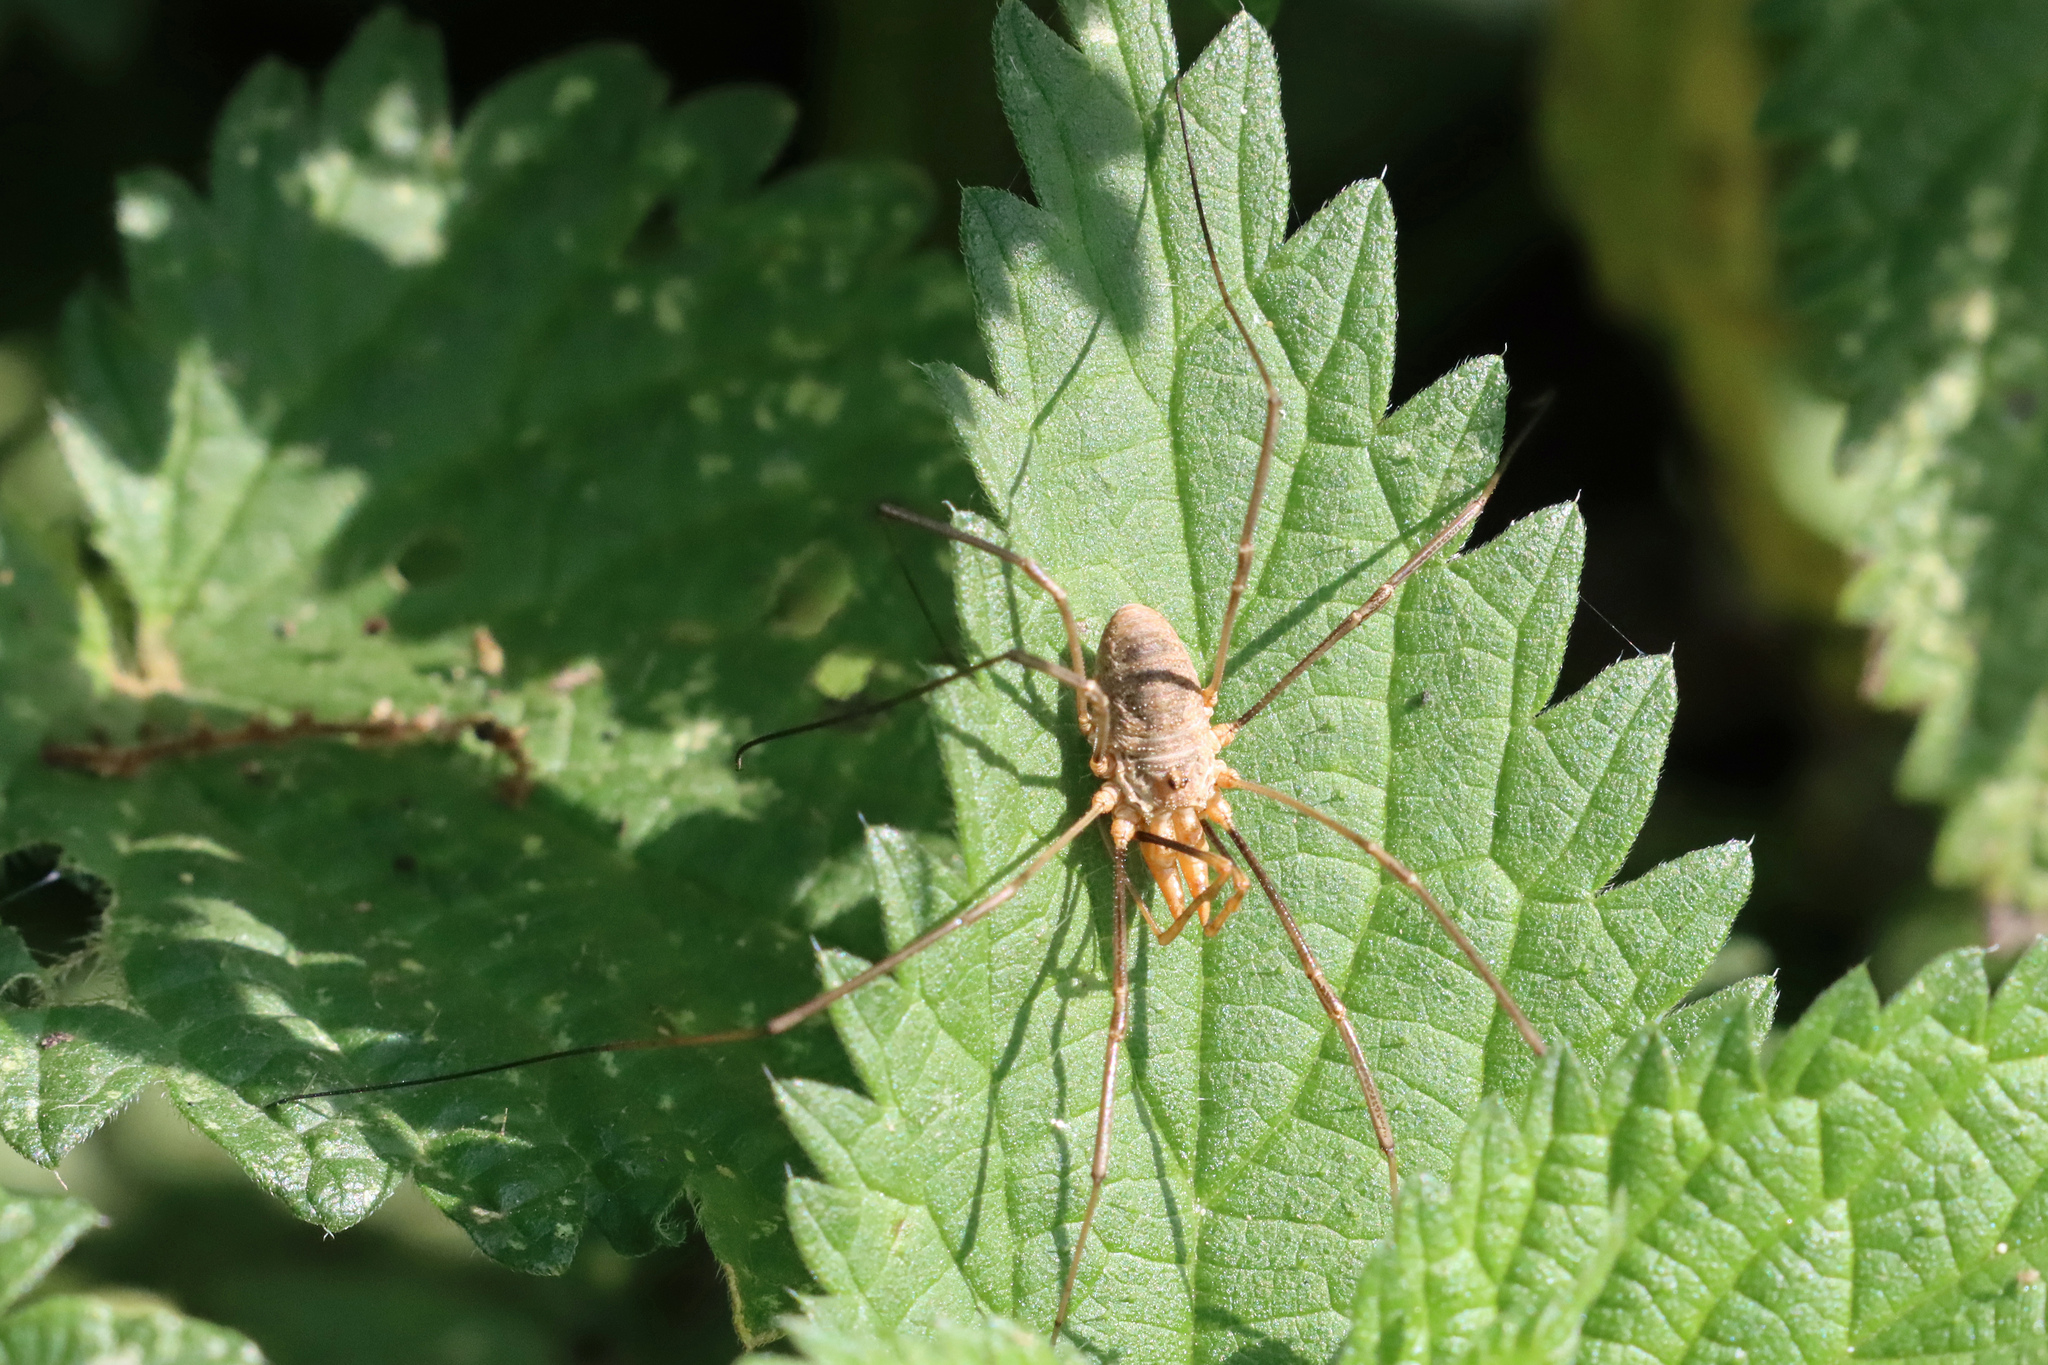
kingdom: Animalia
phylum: Arthropoda
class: Arachnida
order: Opiliones
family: Phalangiidae
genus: Phalangium
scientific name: Phalangium opilio
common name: Daddy longleg
